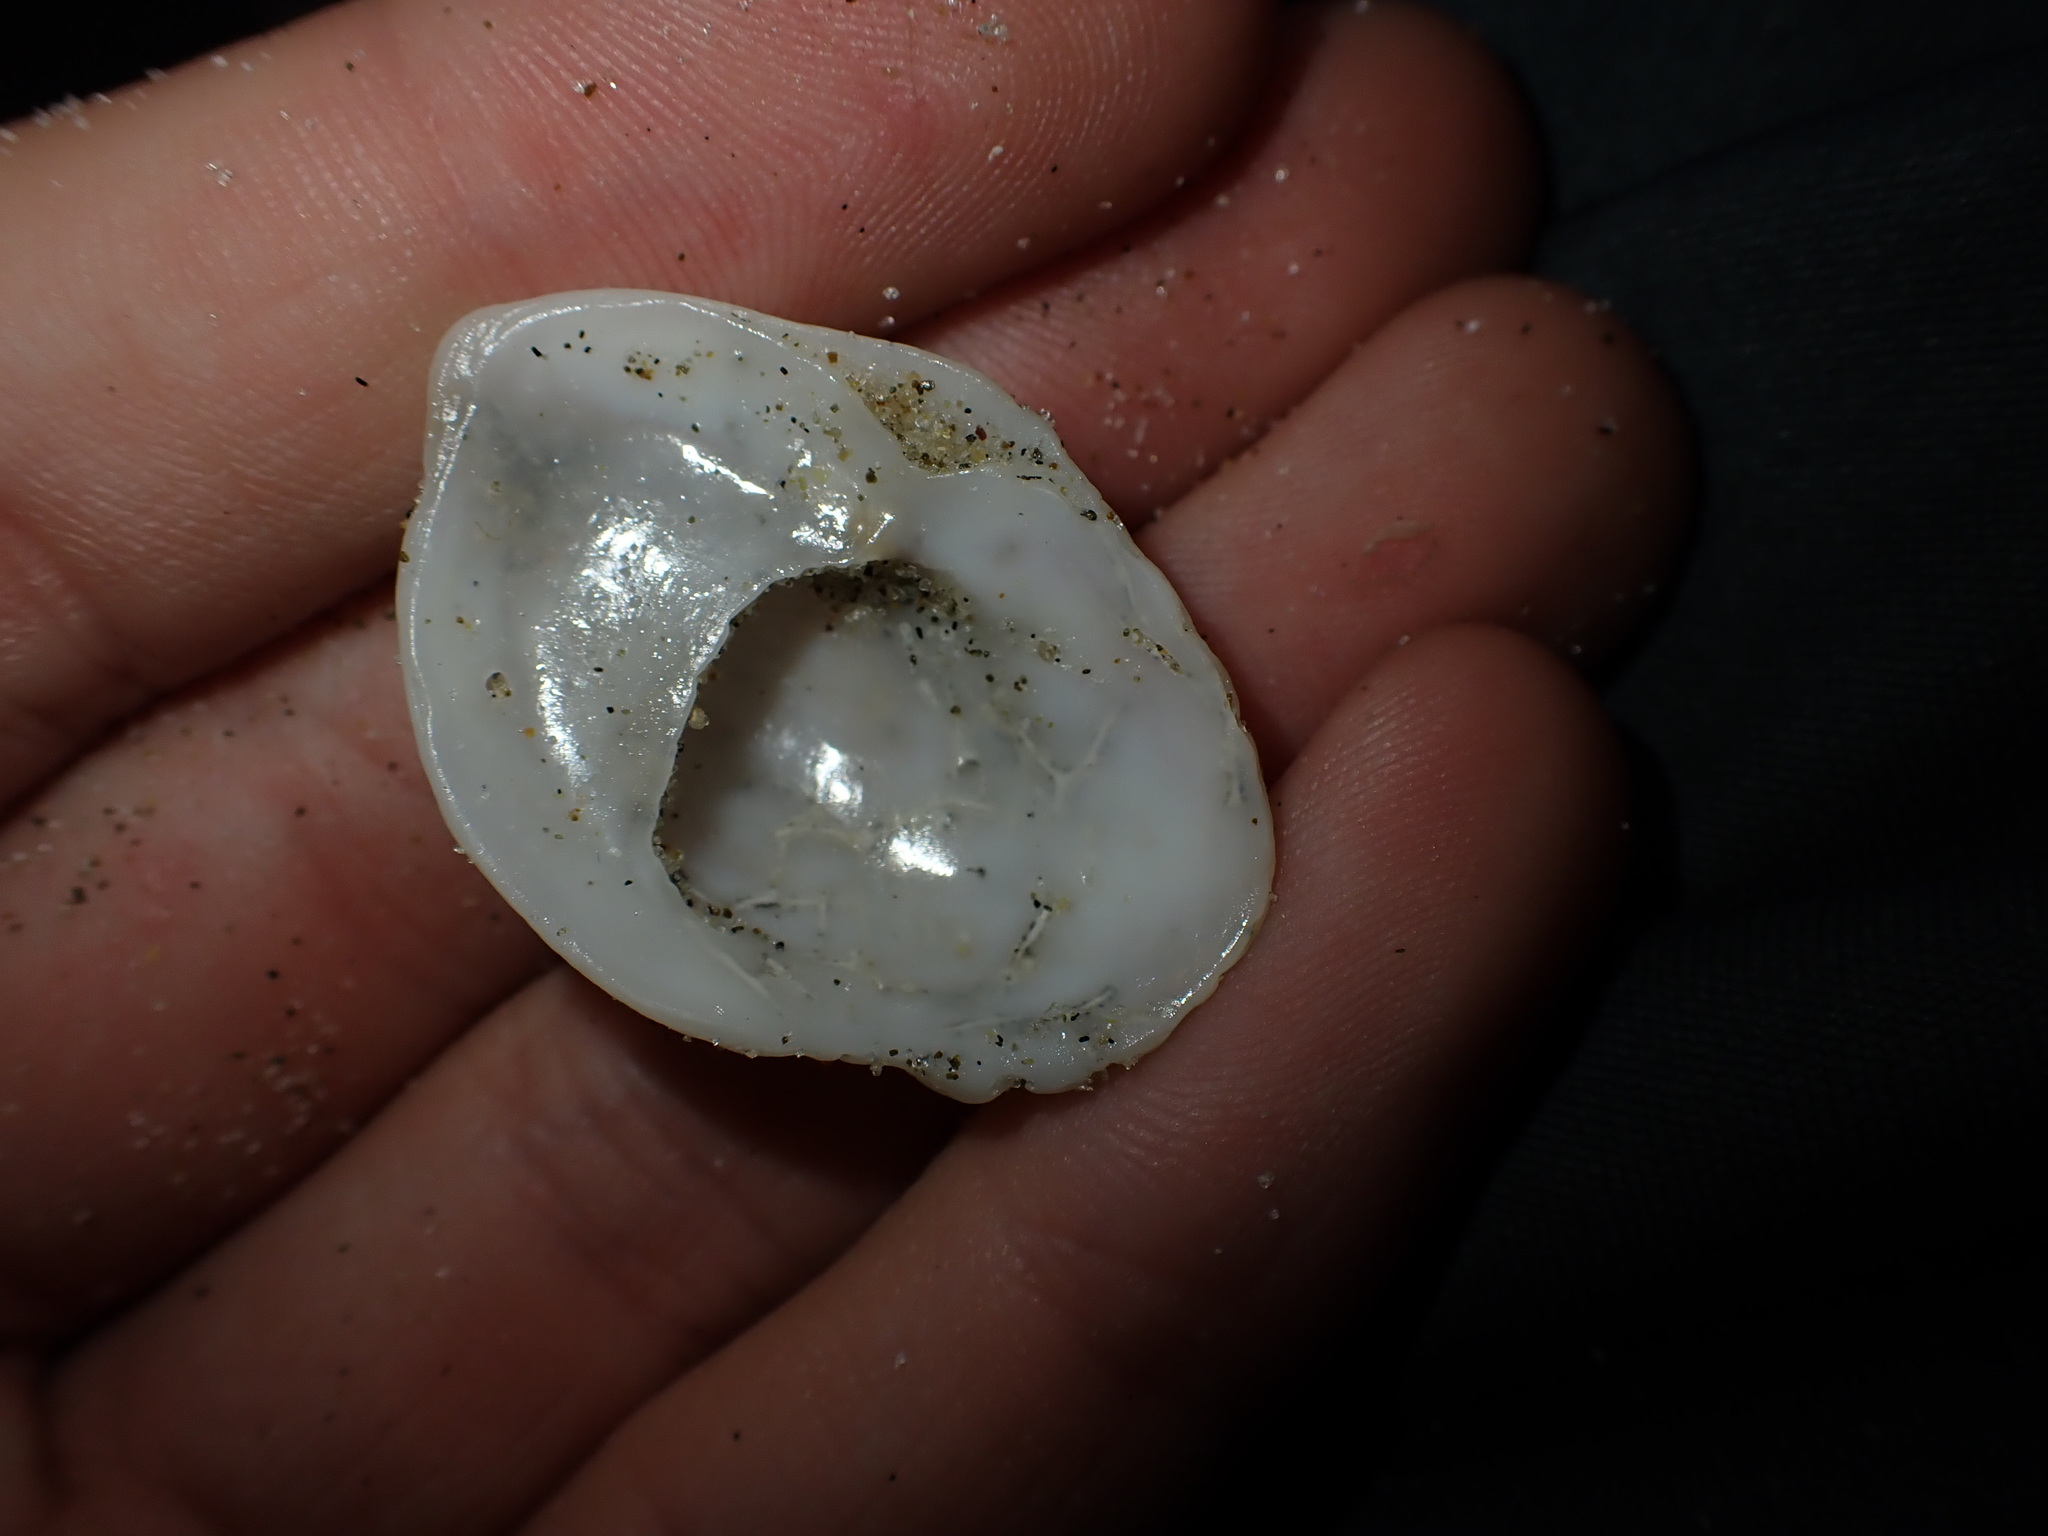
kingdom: Animalia
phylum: Mollusca
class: Gastropoda
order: Littorinimorpha
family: Calyptraeidae
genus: Maoricrypta
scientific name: Maoricrypta costata
